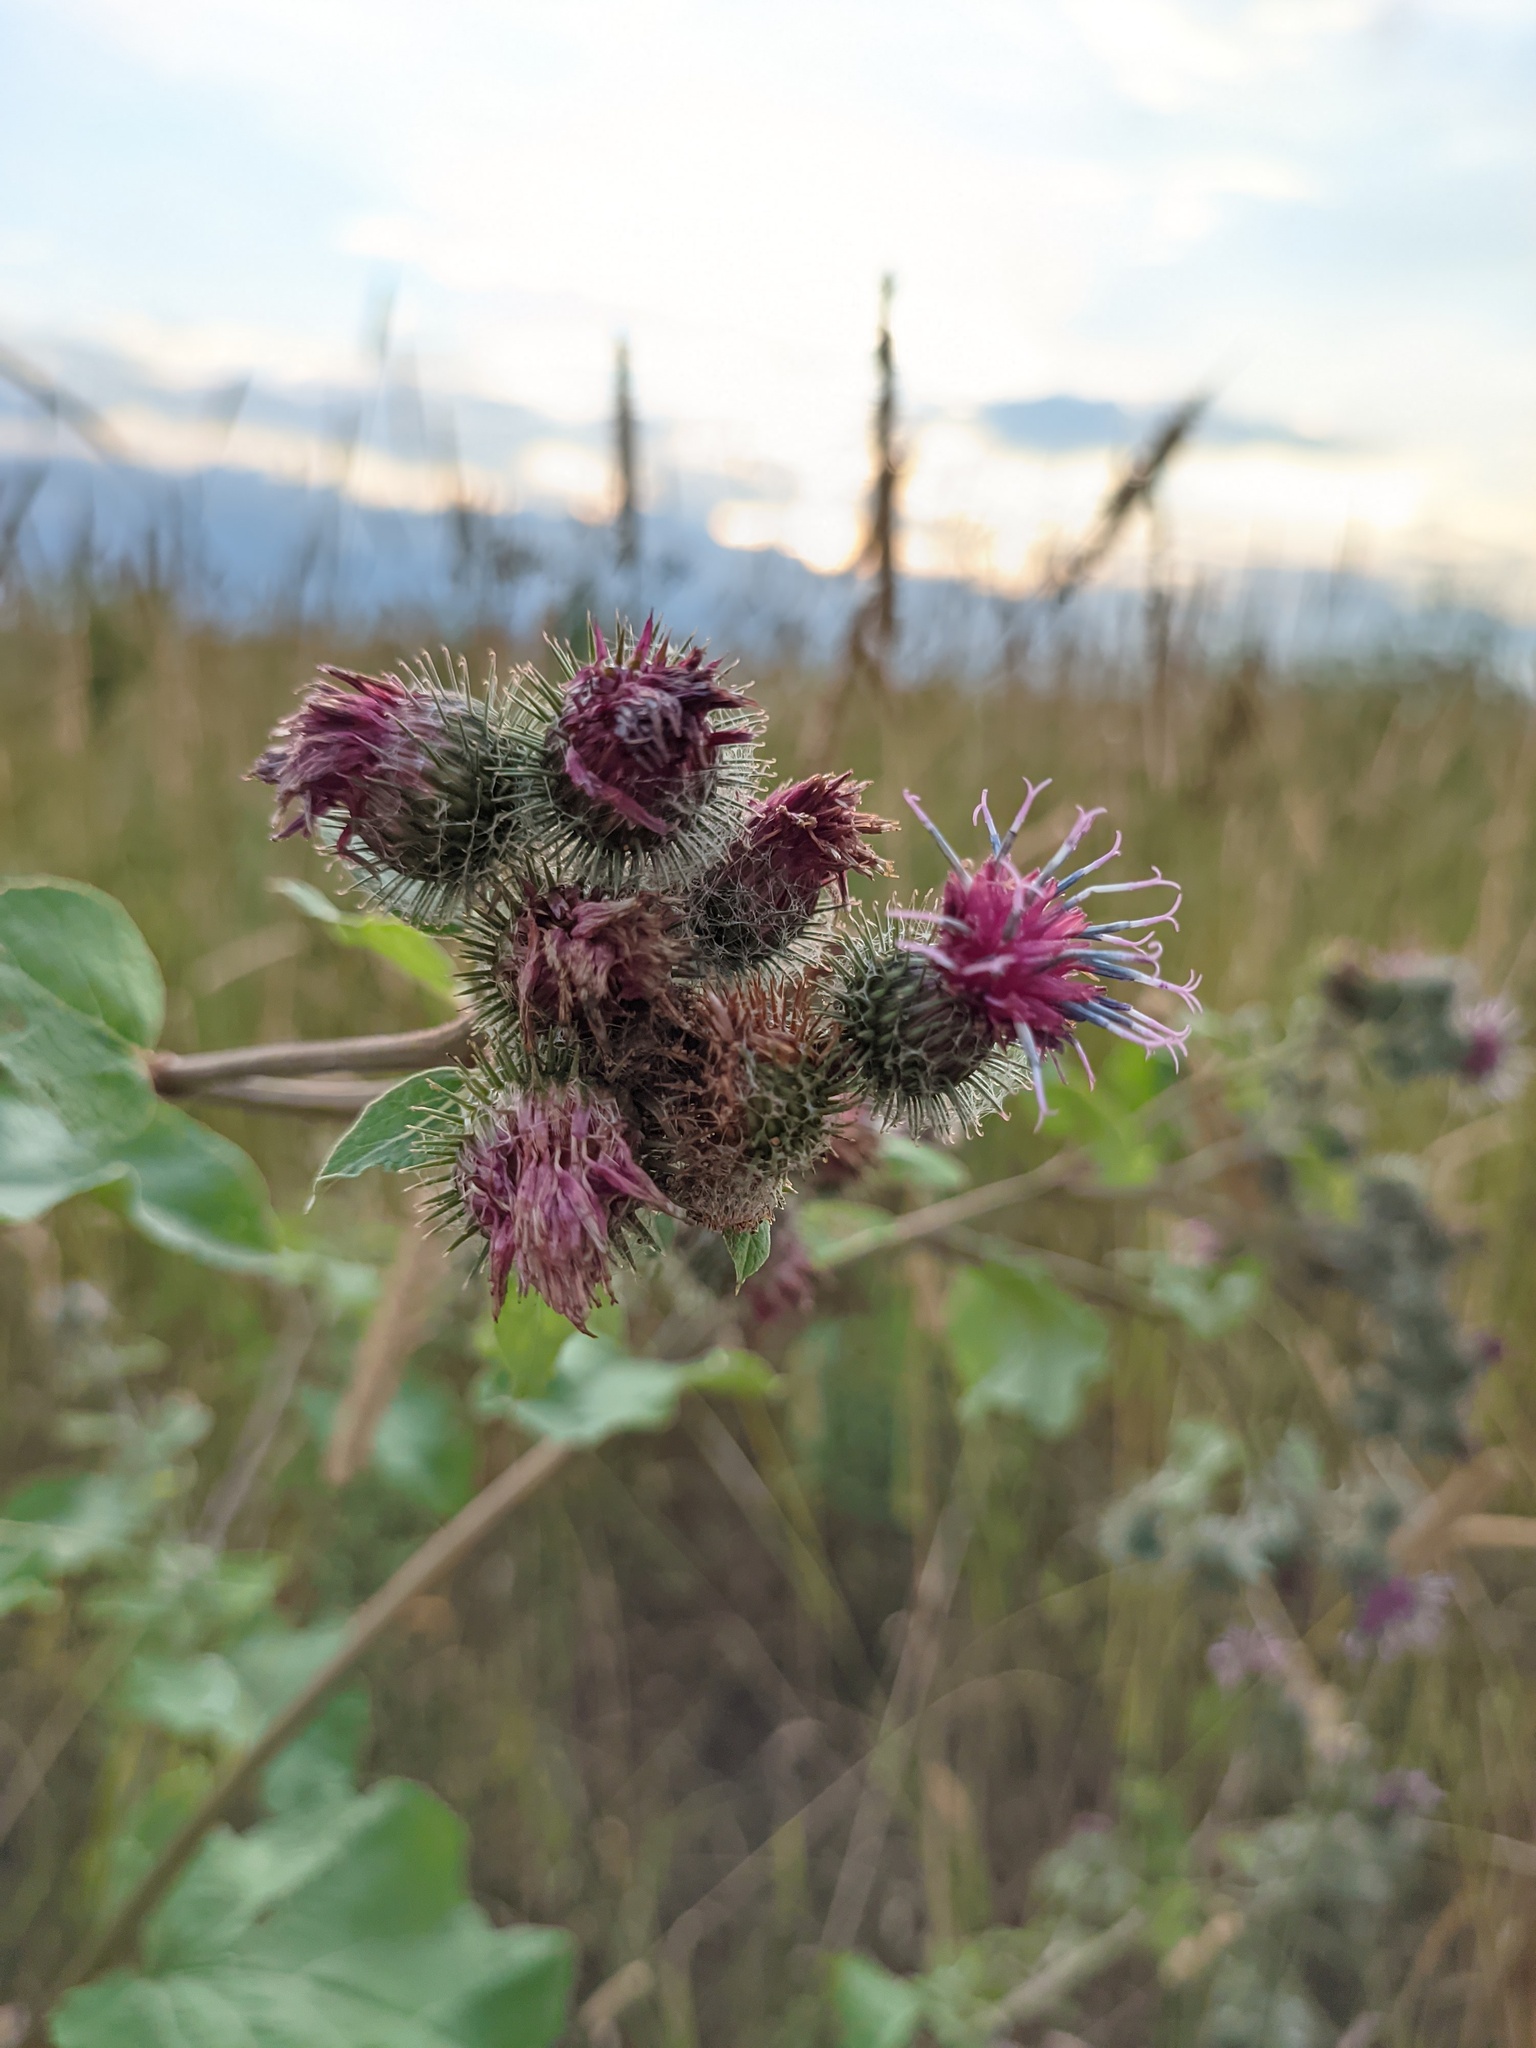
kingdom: Plantae
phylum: Tracheophyta
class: Magnoliopsida
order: Asterales
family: Asteraceae
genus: Arctium
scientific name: Arctium tomentosum
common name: Woolly burdock
